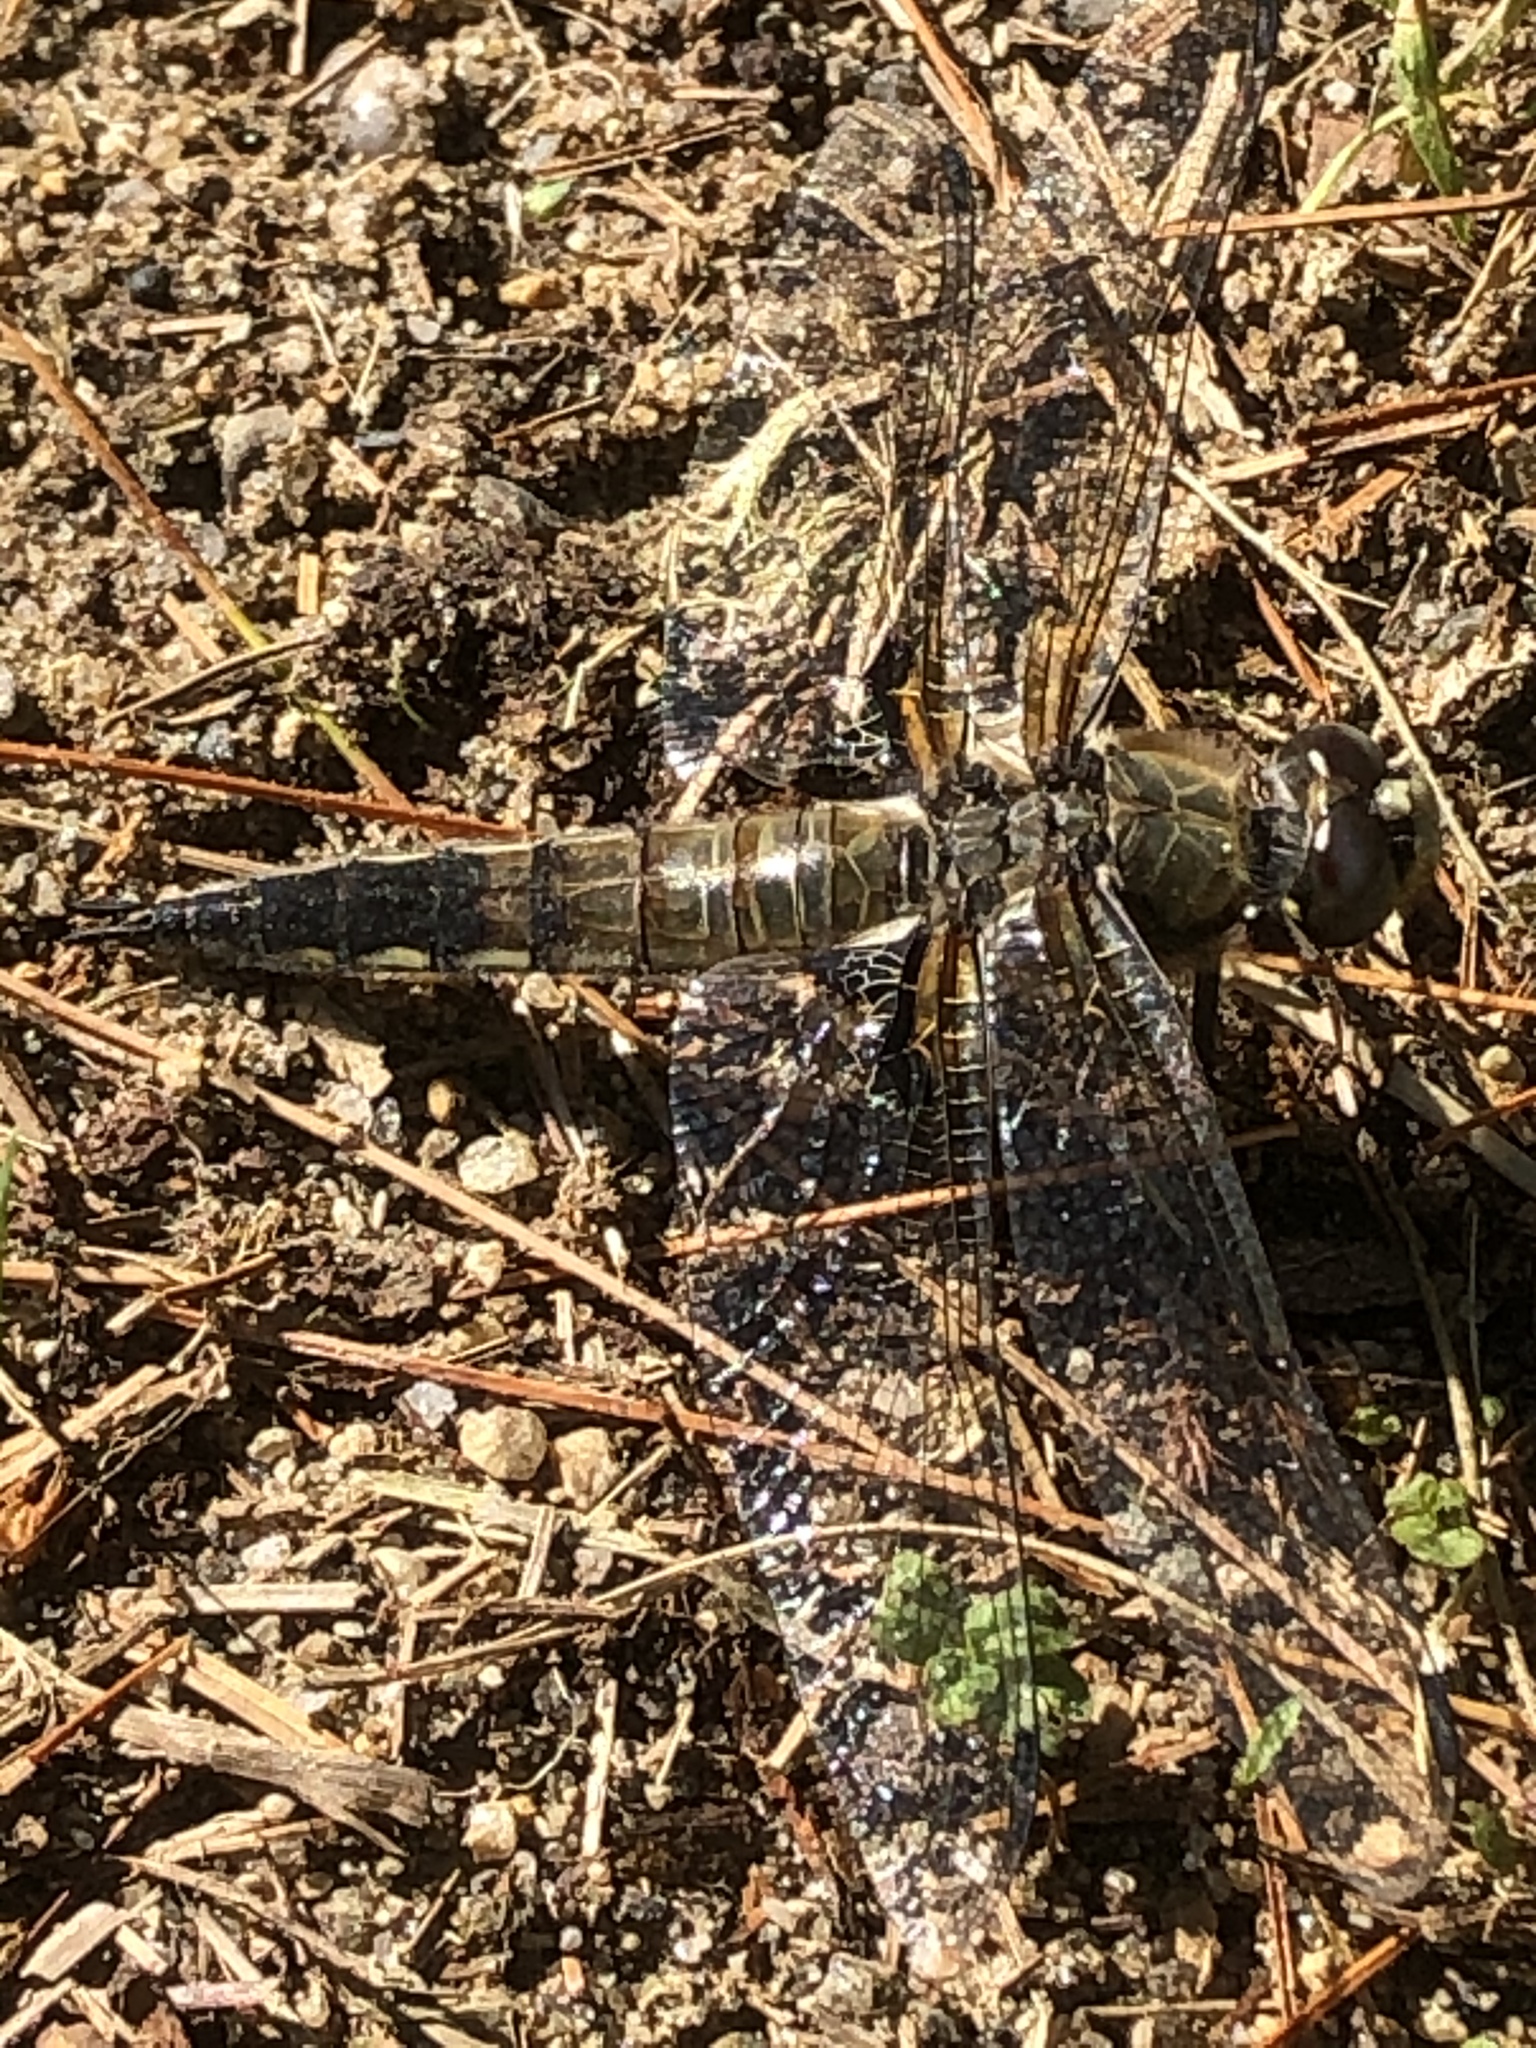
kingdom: Animalia
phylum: Arthropoda
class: Insecta
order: Odonata
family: Libellulidae
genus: Libellula
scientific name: Libellula quadrimaculata
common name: Four-spotted chaser
